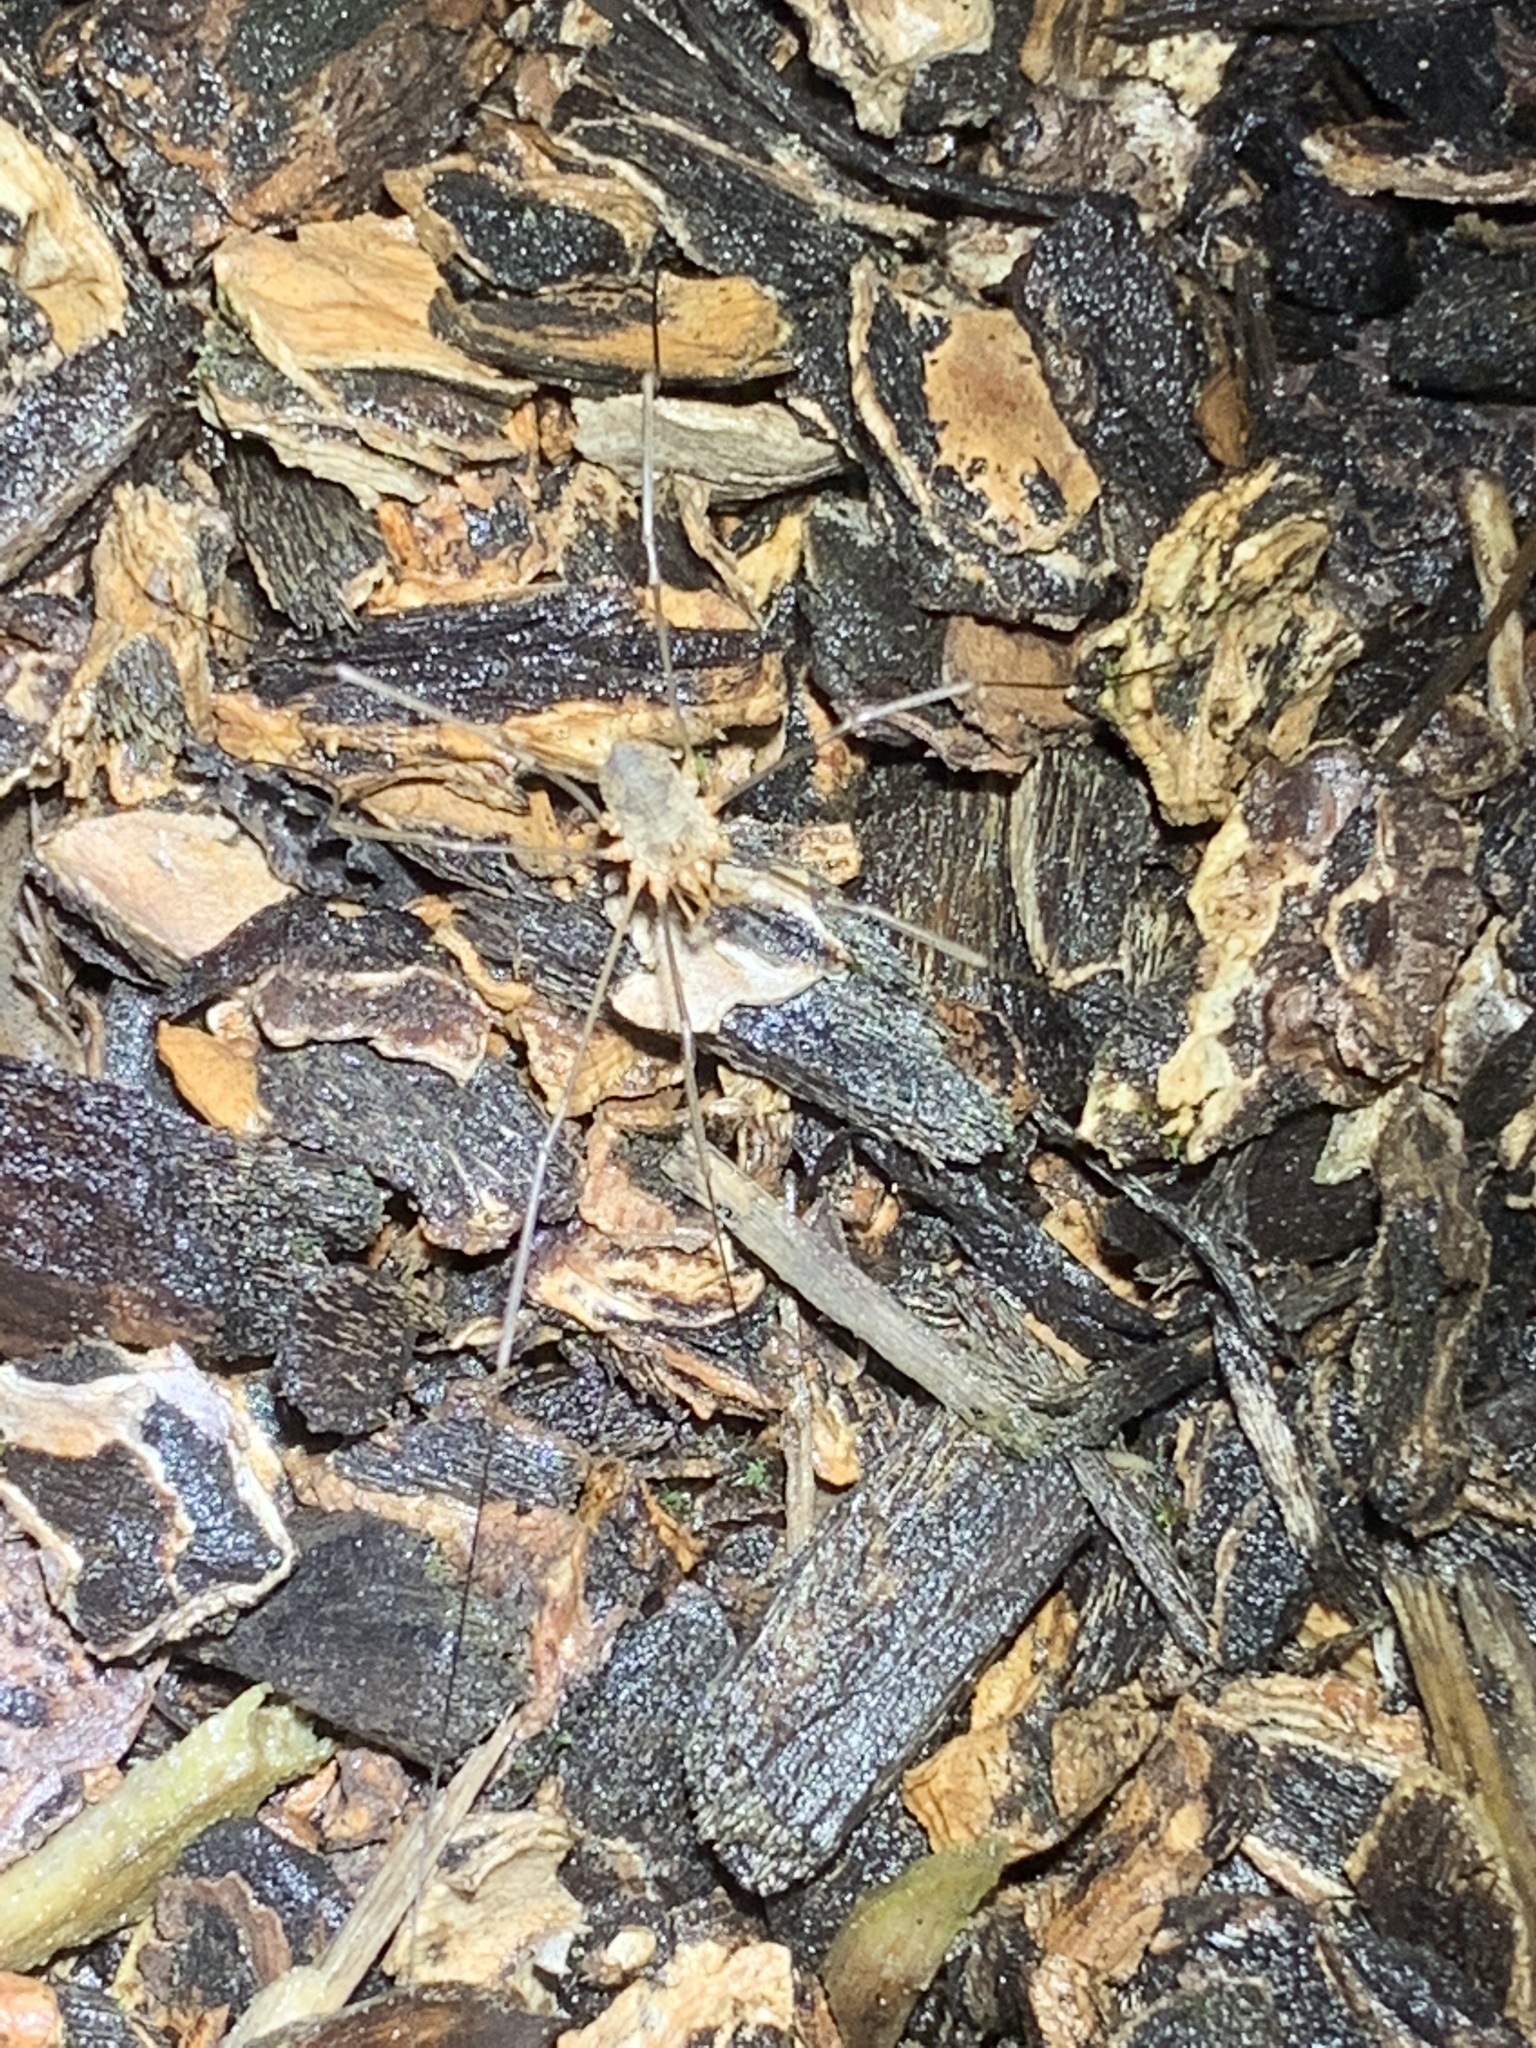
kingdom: Animalia
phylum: Arthropoda
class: Arachnida
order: Opiliones
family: Phalangiidae
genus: Phalangium
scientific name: Phalangium opilio
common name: Daddy longleg
